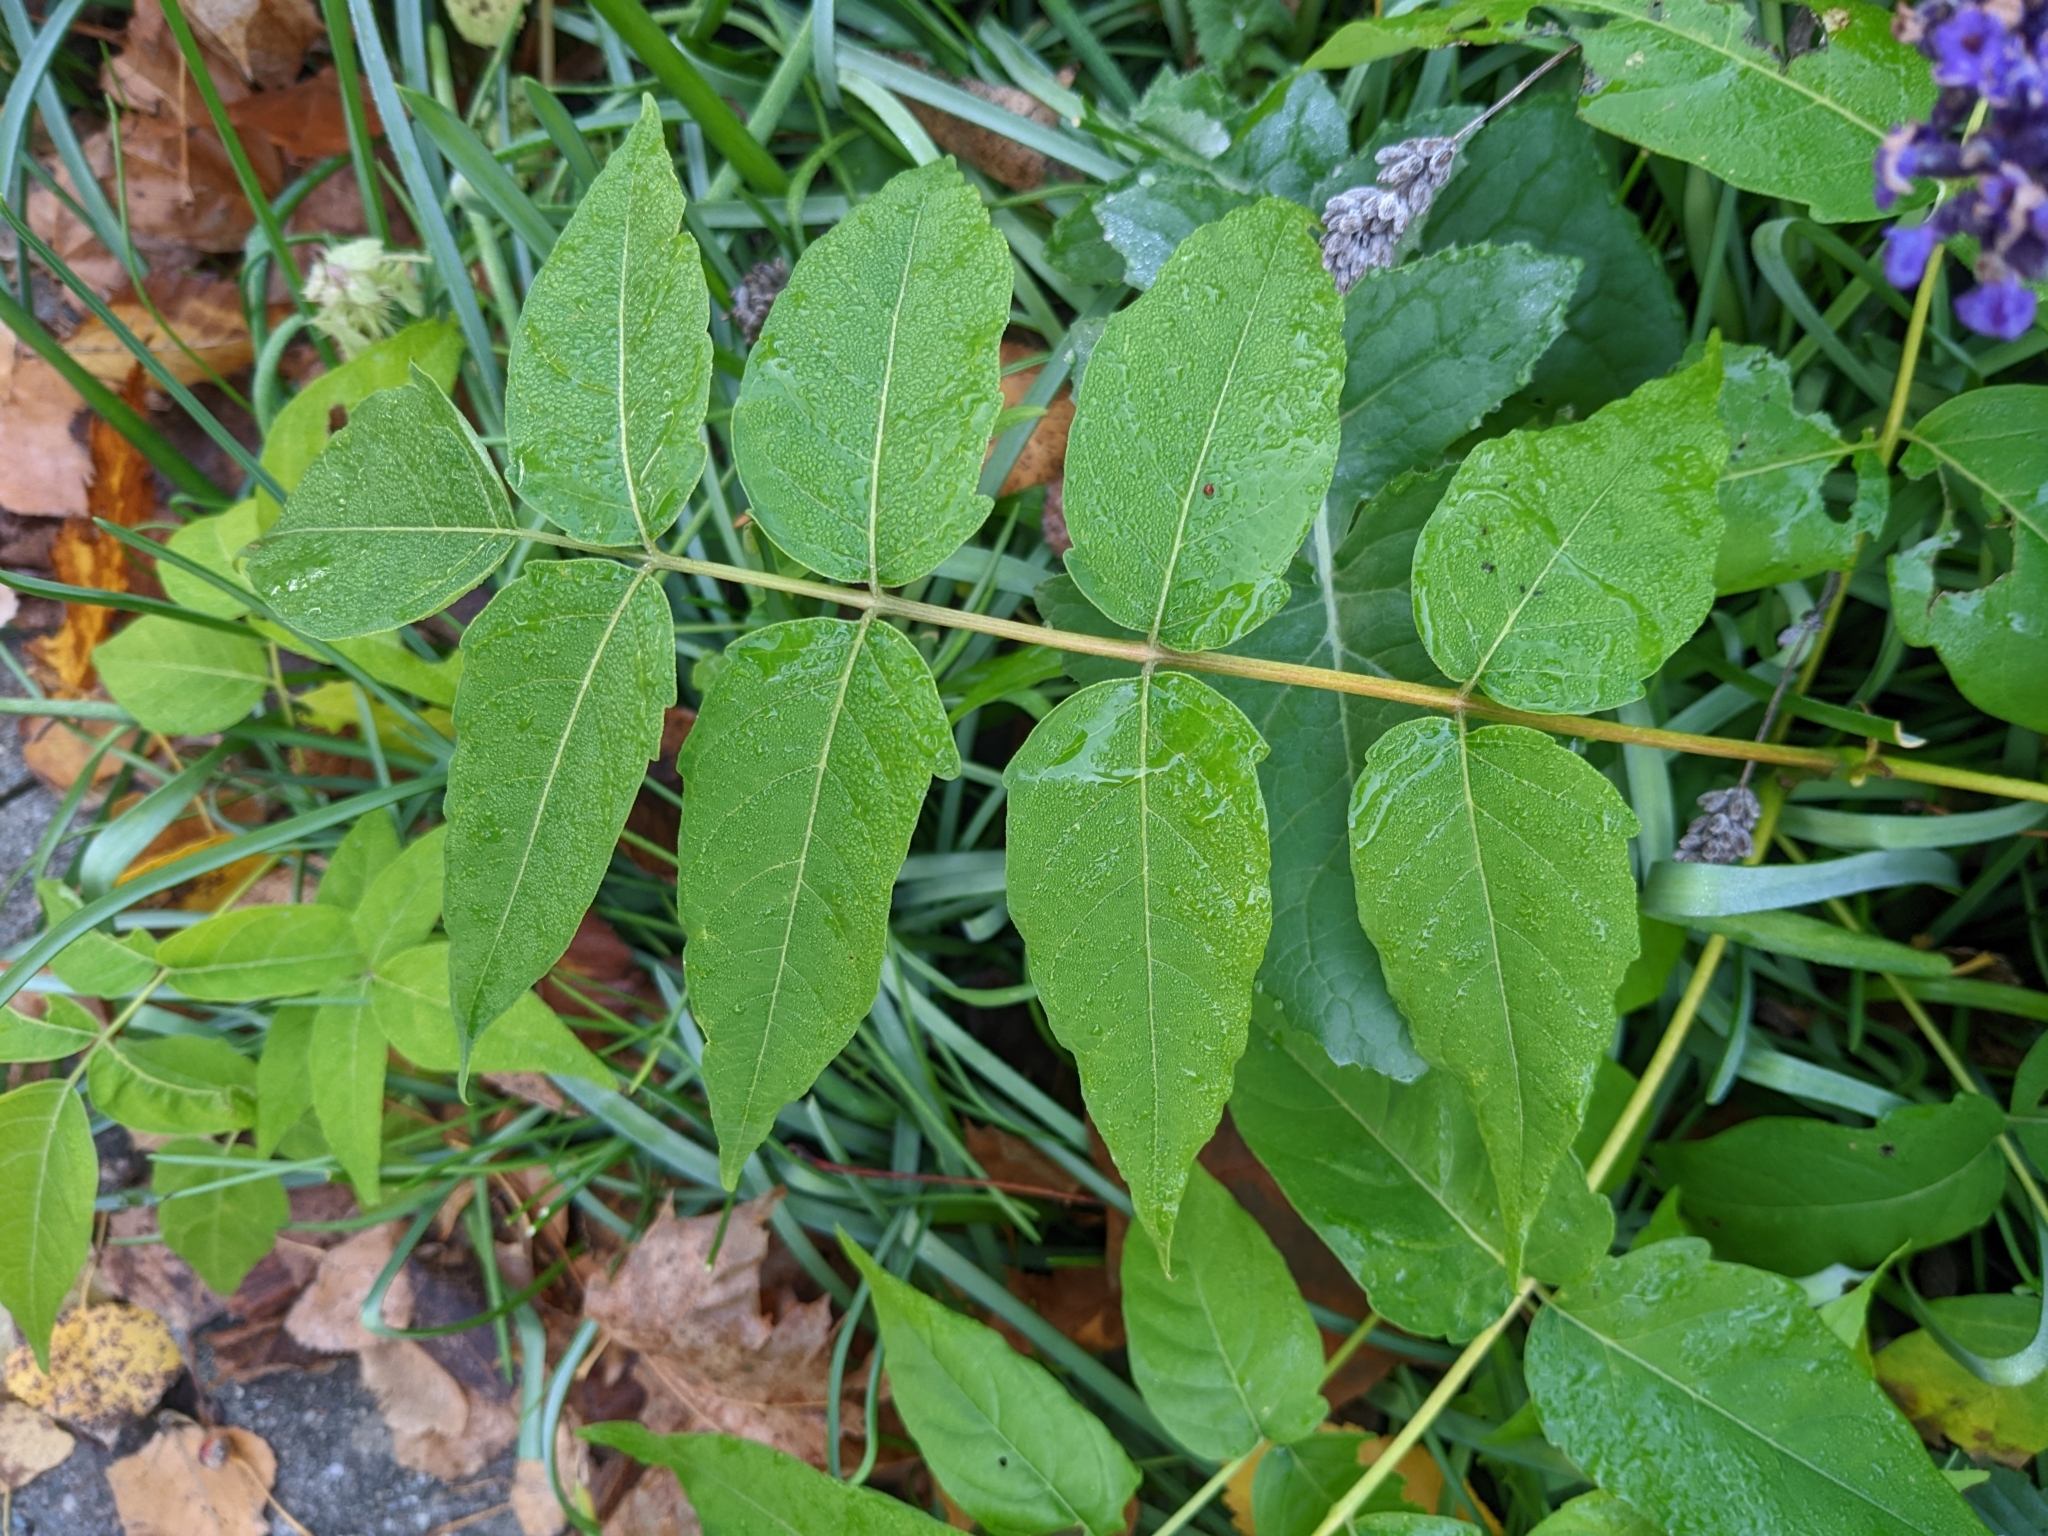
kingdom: Plantae
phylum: Tracheophyta
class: Magnoliopsida
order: Sapindales
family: Simaroubaceae
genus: Ailanthus
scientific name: Ailanthus altissima
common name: Tree-of-heaven
